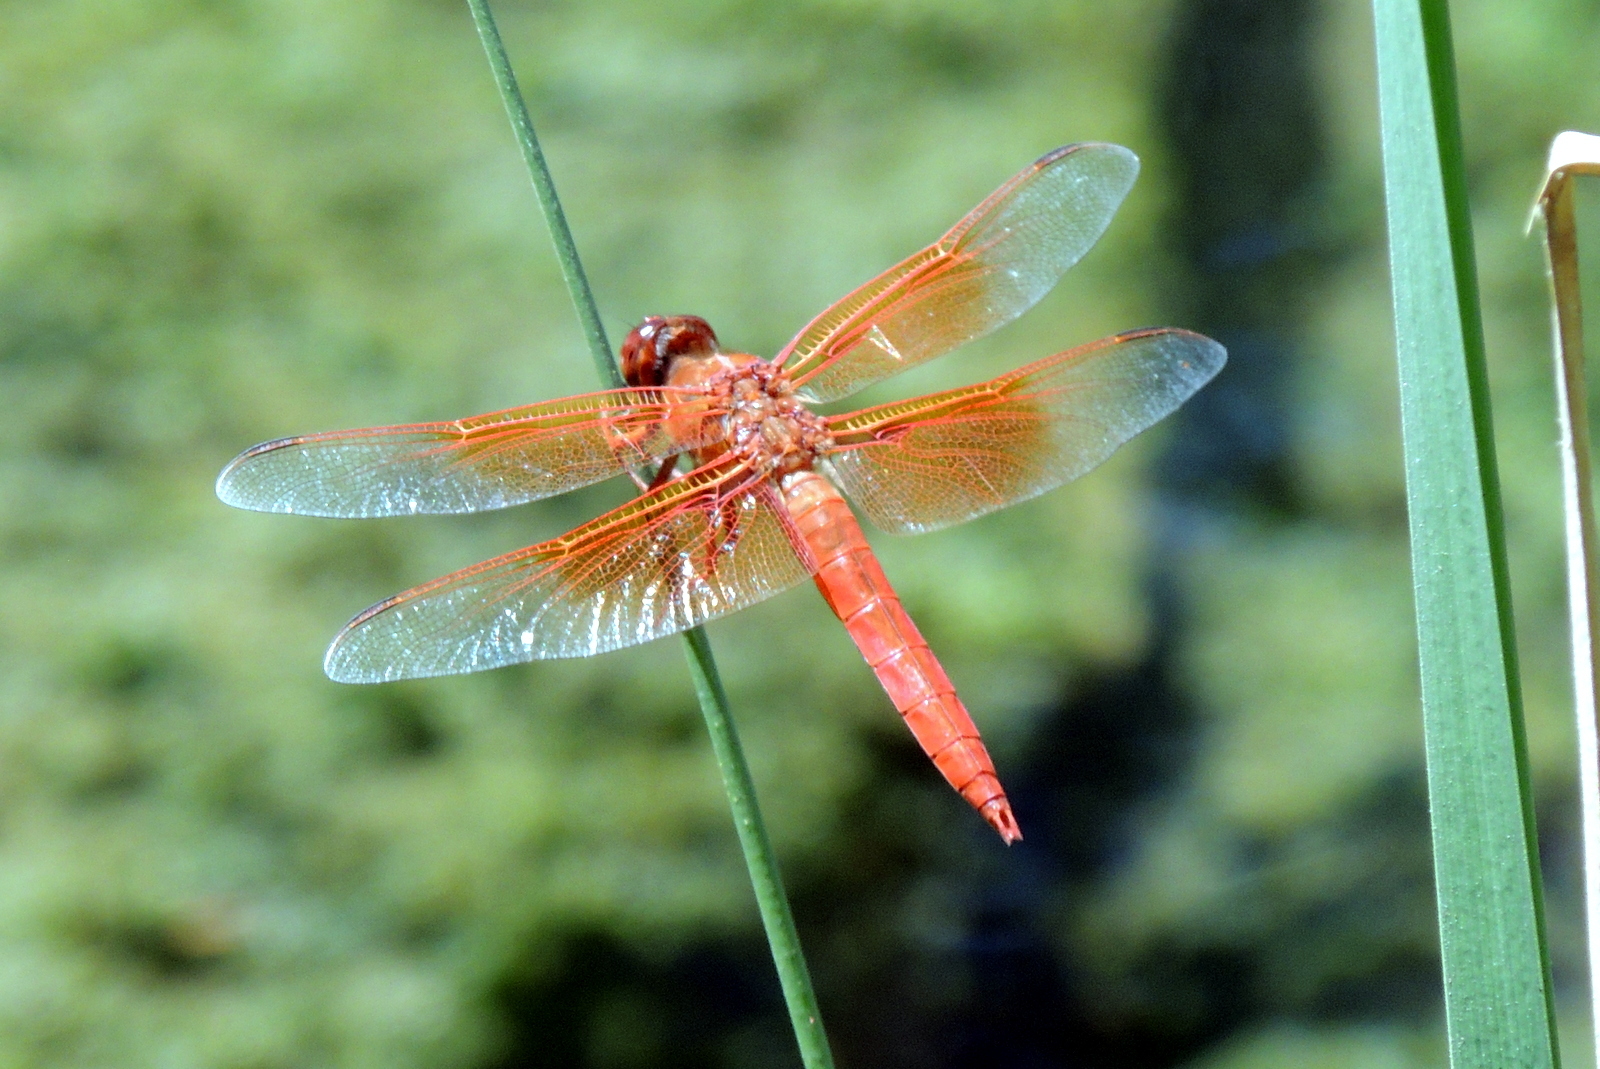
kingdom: Animalia
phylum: Arthropoda
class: Insecta
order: Odonata
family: Libellulidae
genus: Libellula
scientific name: Libellula saturata
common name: Flame skimmer
